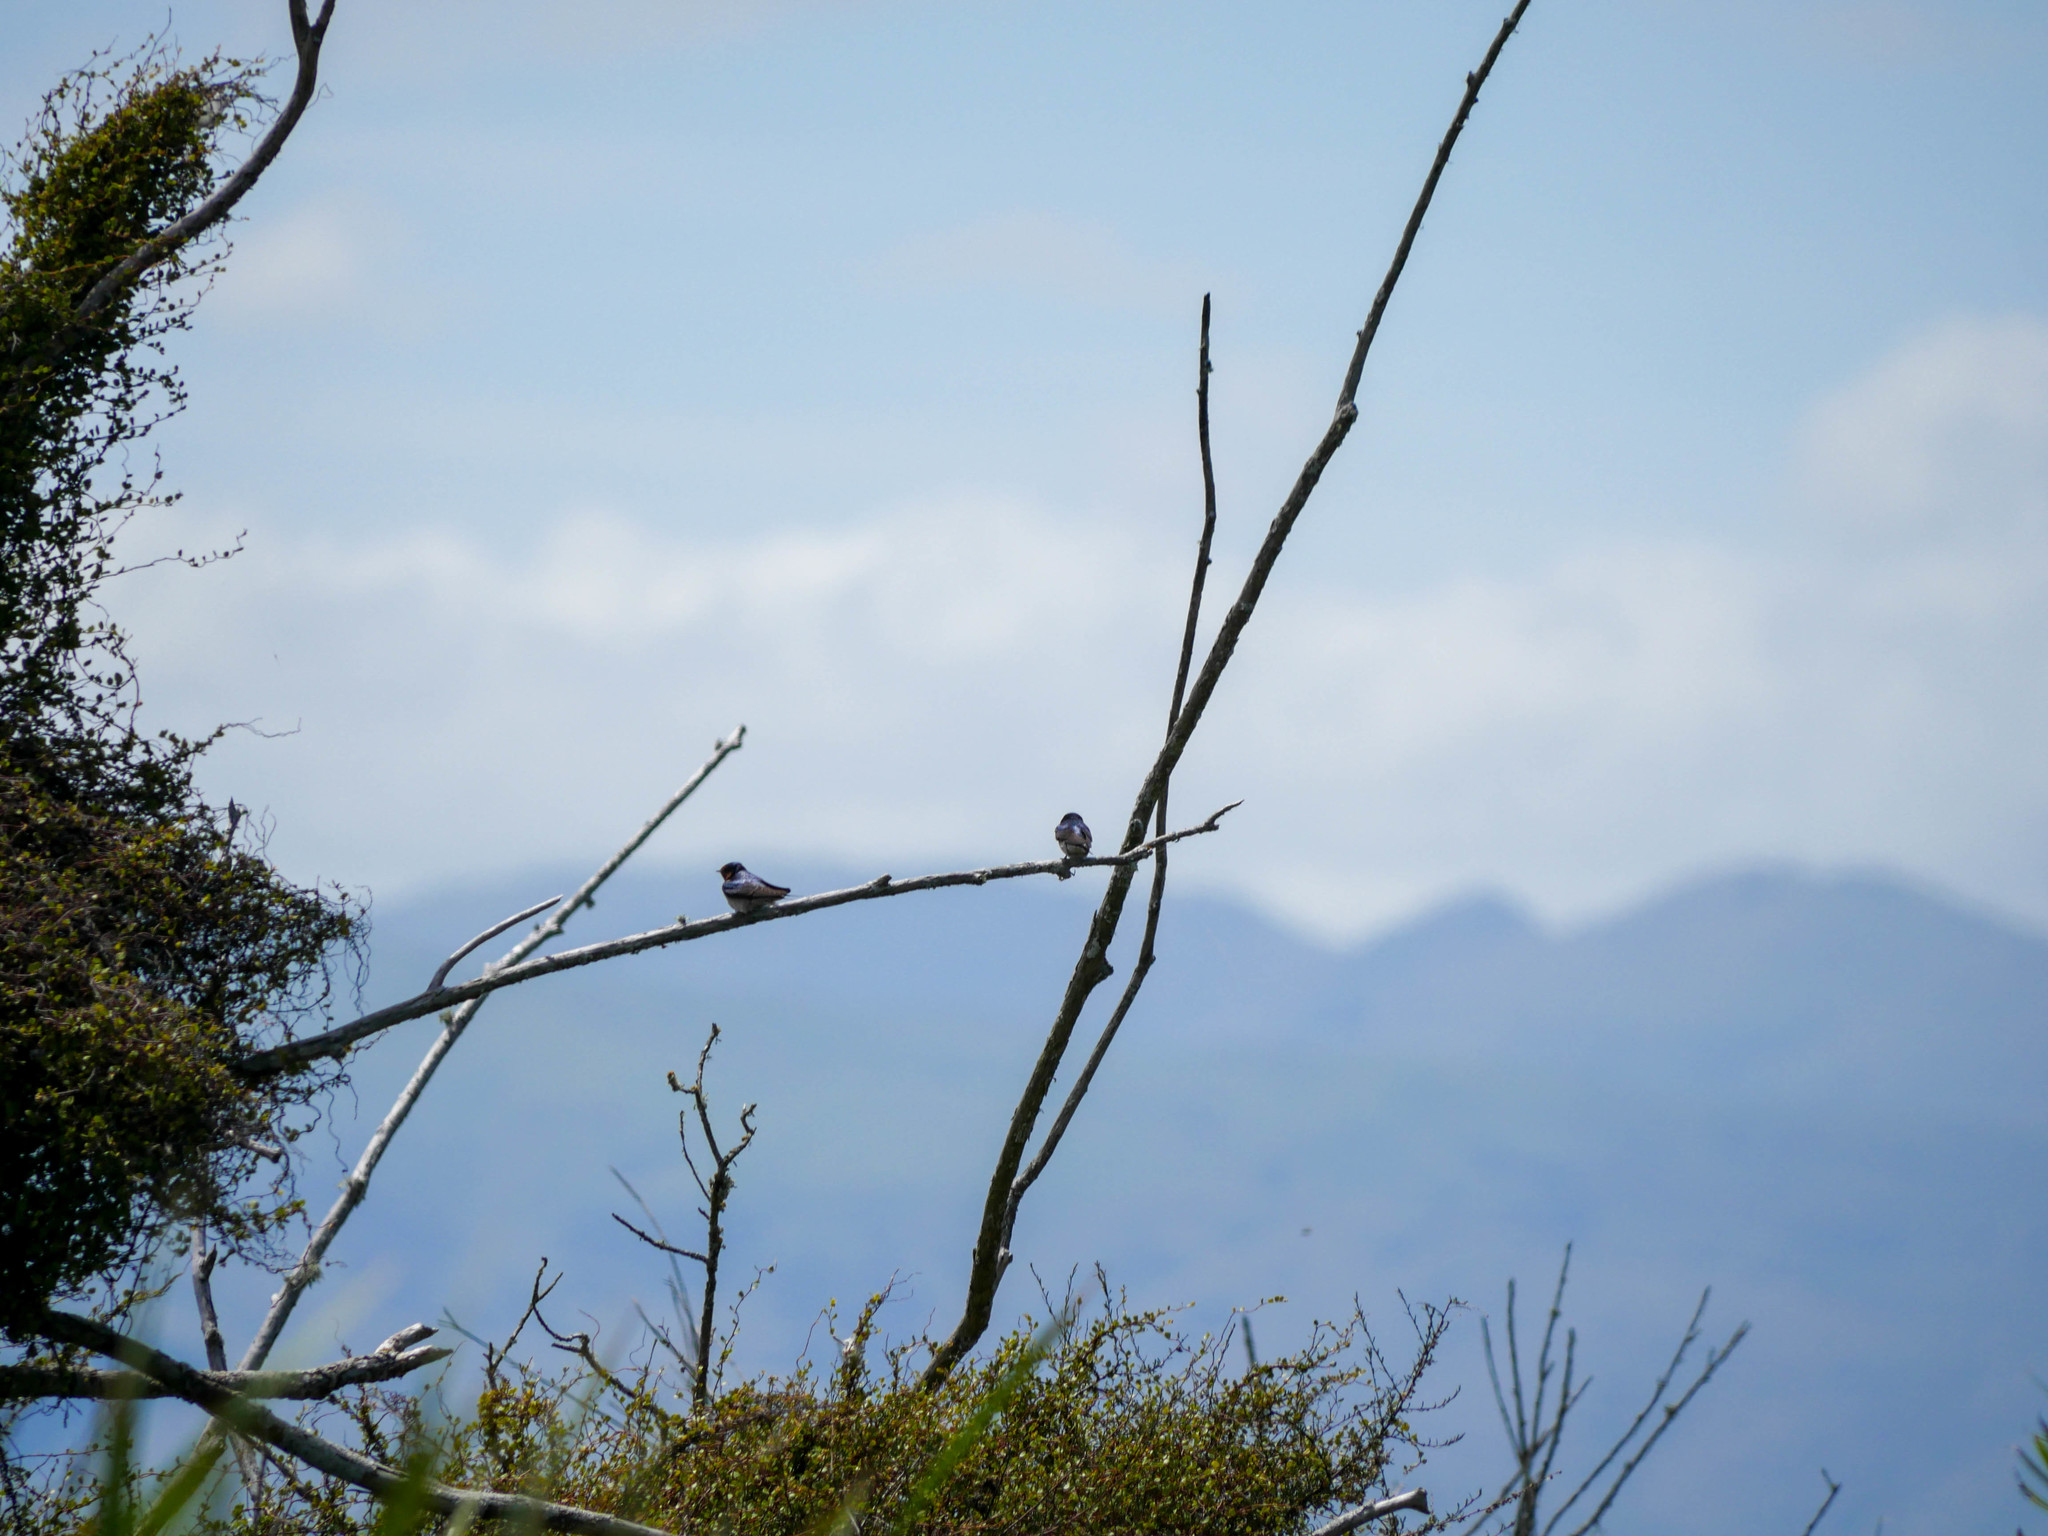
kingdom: Animalia
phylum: Chordata
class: Aves
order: Passeriformes
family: Hirundinidae
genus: Hirundo
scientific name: Hirundo neoxena
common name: Welcome swallow
